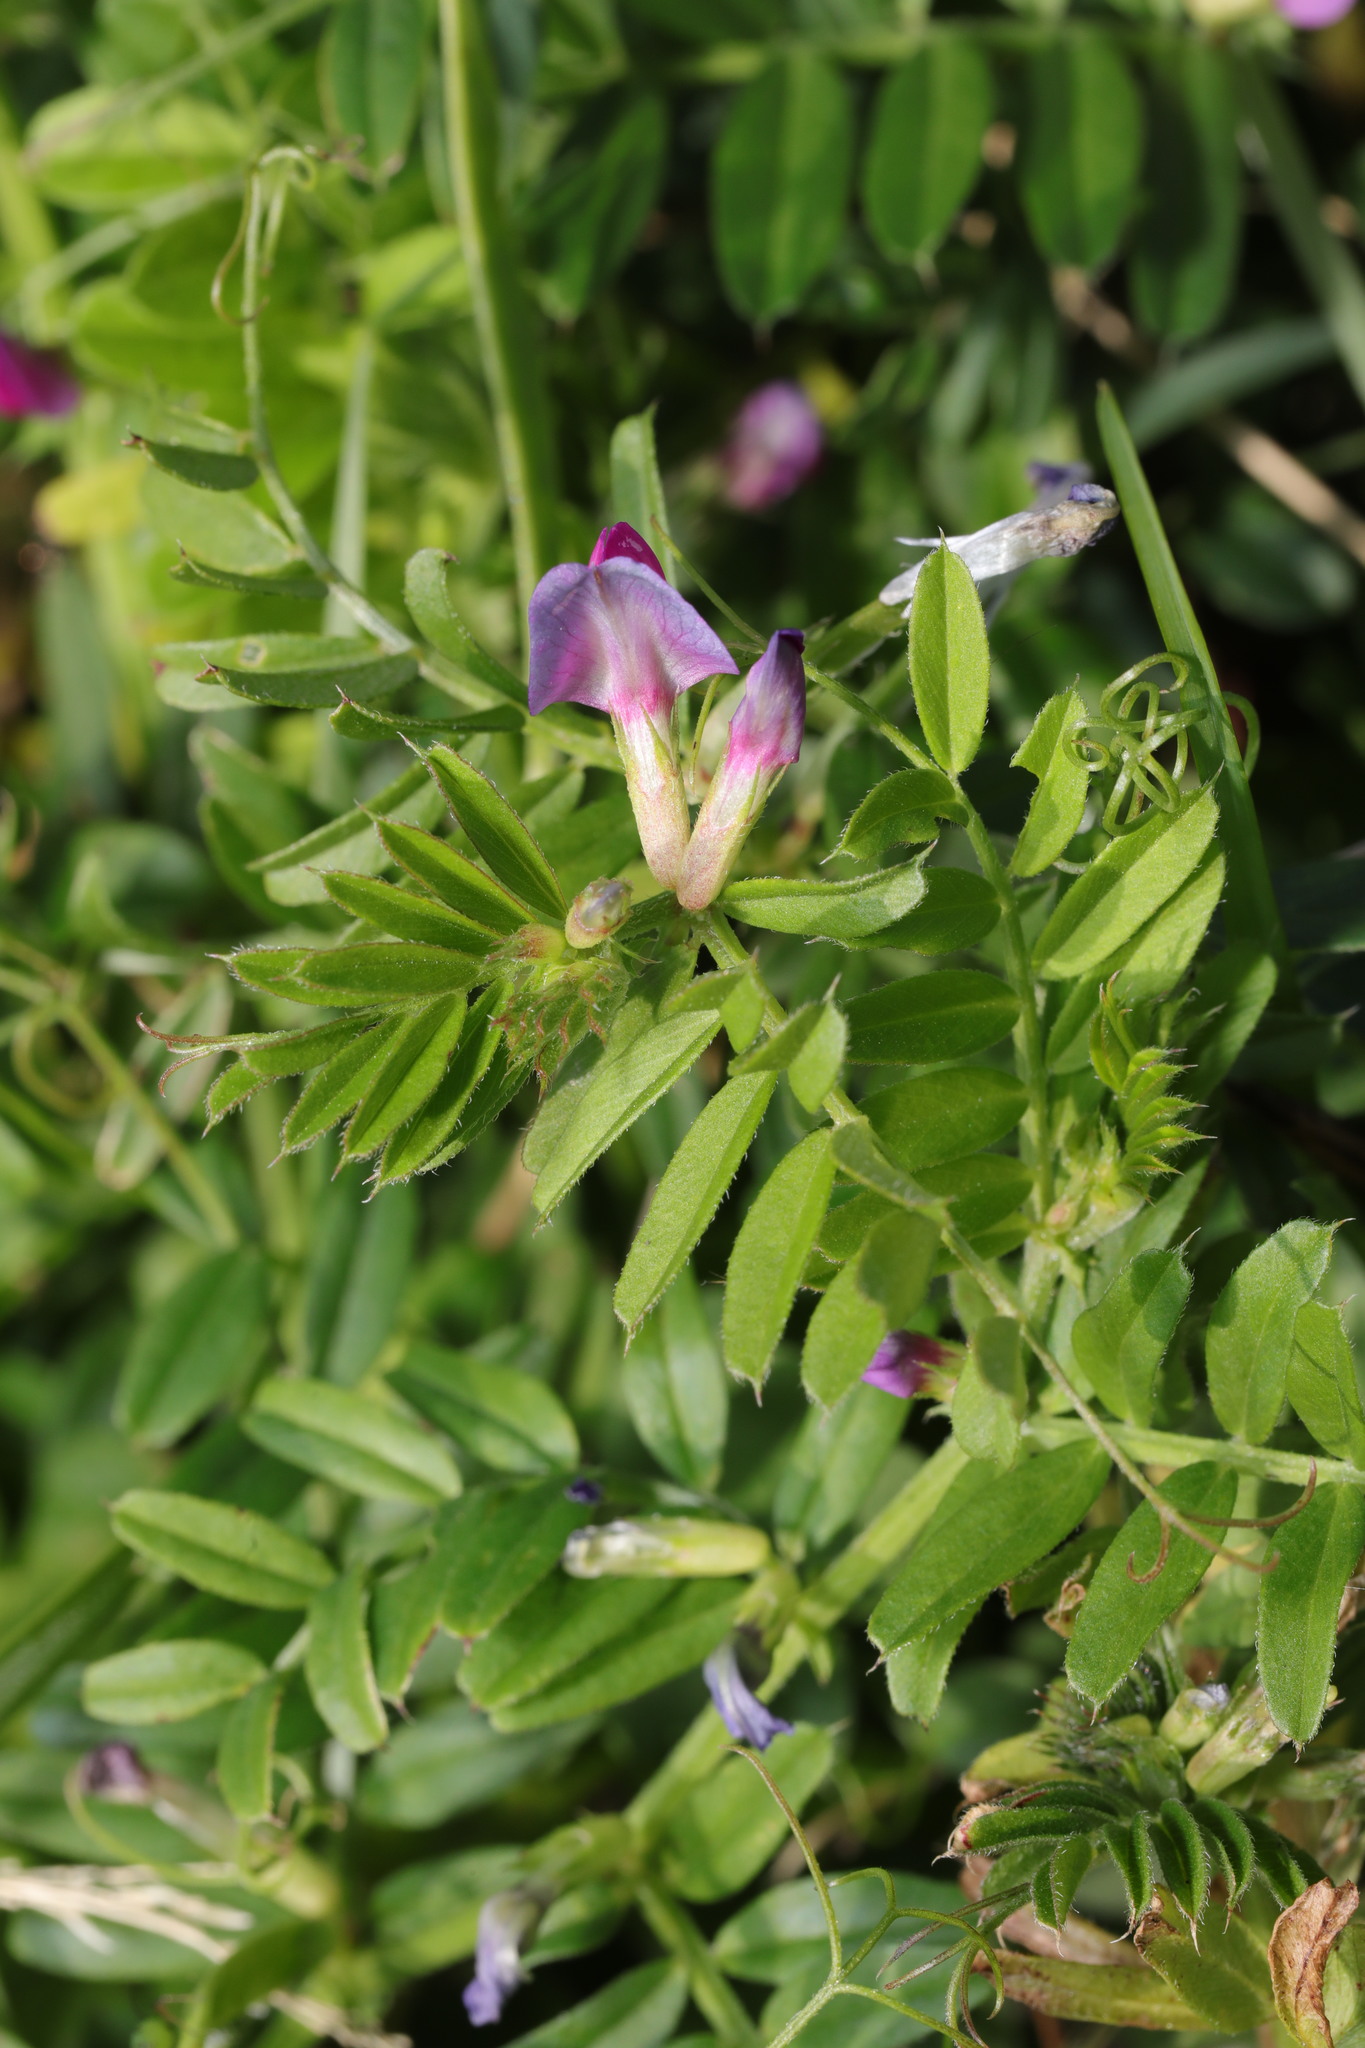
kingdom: Plantae
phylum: Tracheophyta
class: Magnoliopsida
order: Fabales
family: Fabaceae
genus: Vicia
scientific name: Vicia sativa
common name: Garden vetch
